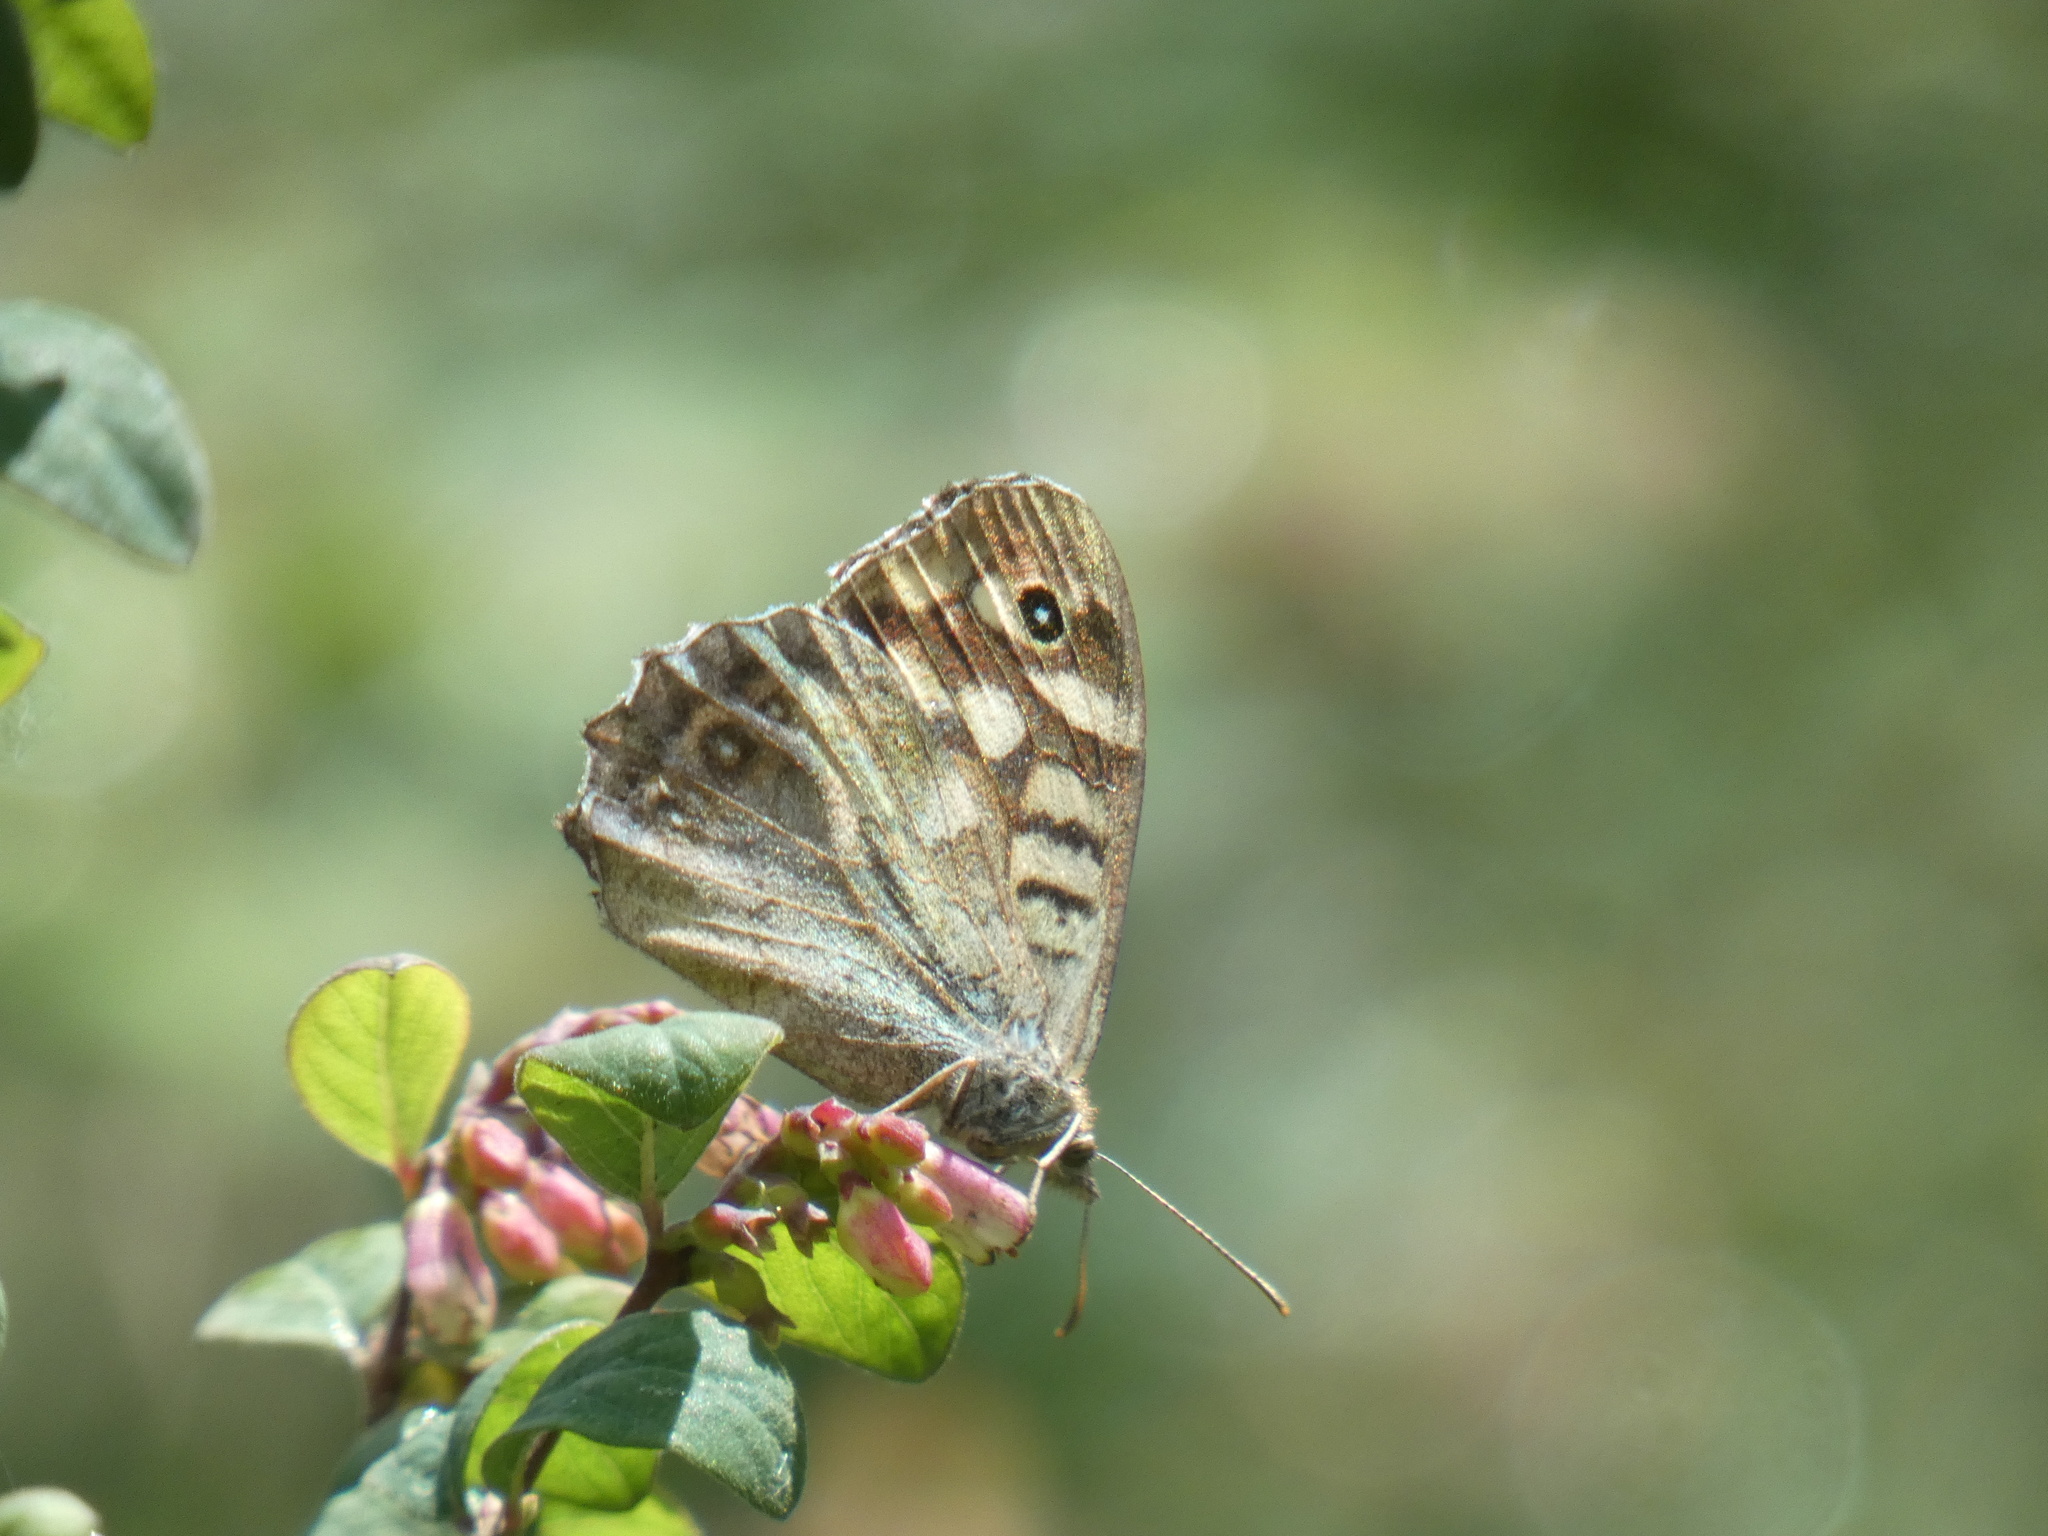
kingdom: Animalia
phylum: Arthropoda
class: Insecta
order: Lepidoptera
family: Nymphalidae
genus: Pararge
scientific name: Pararge aegeria
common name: Speckled wood
